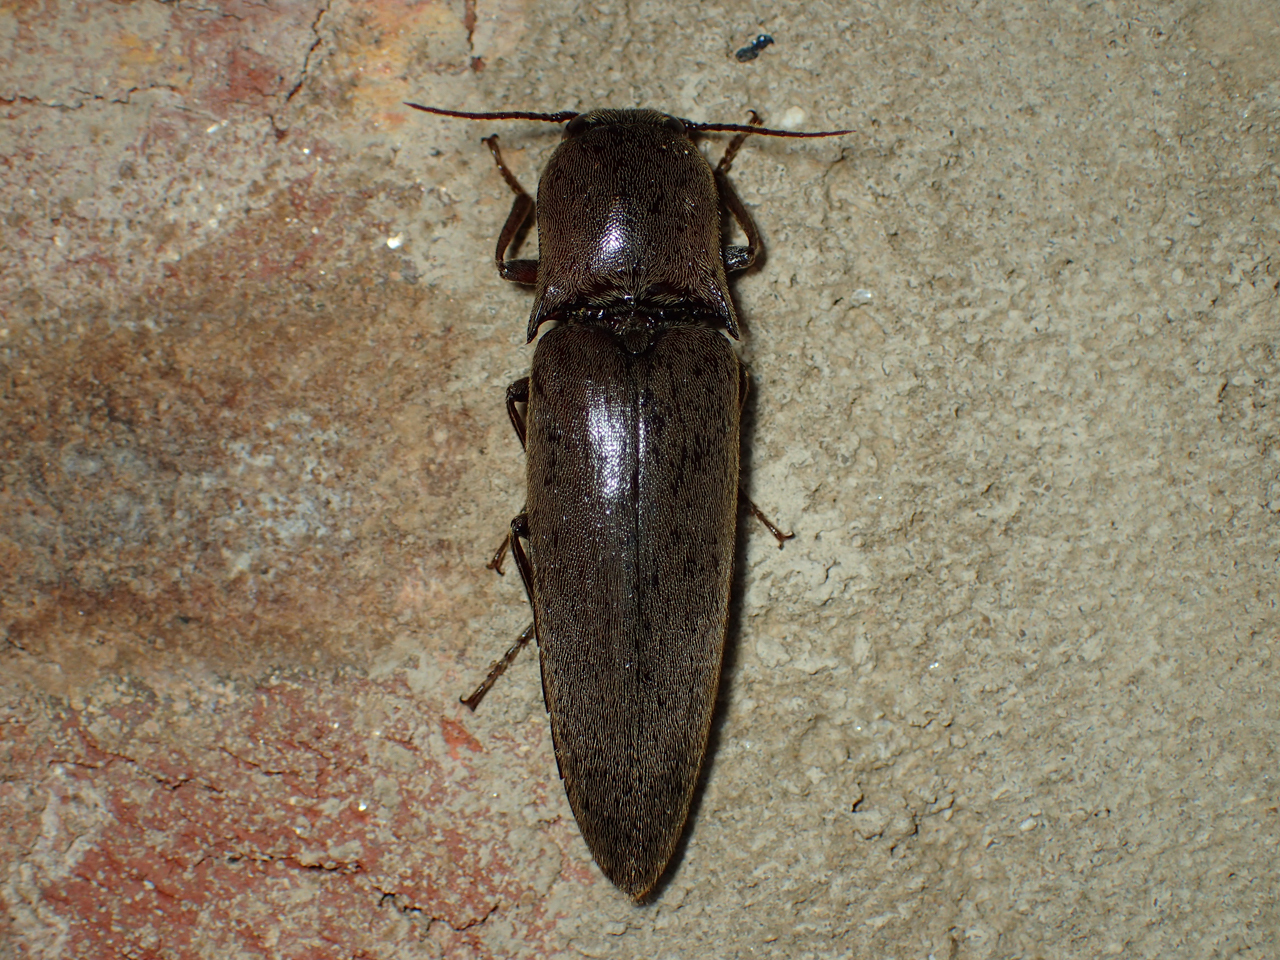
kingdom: Animalia
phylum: Arthropoda
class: Insecta
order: Coleoptera
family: Elateridae
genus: Orthostethus
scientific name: Orthostethus infuscatus
